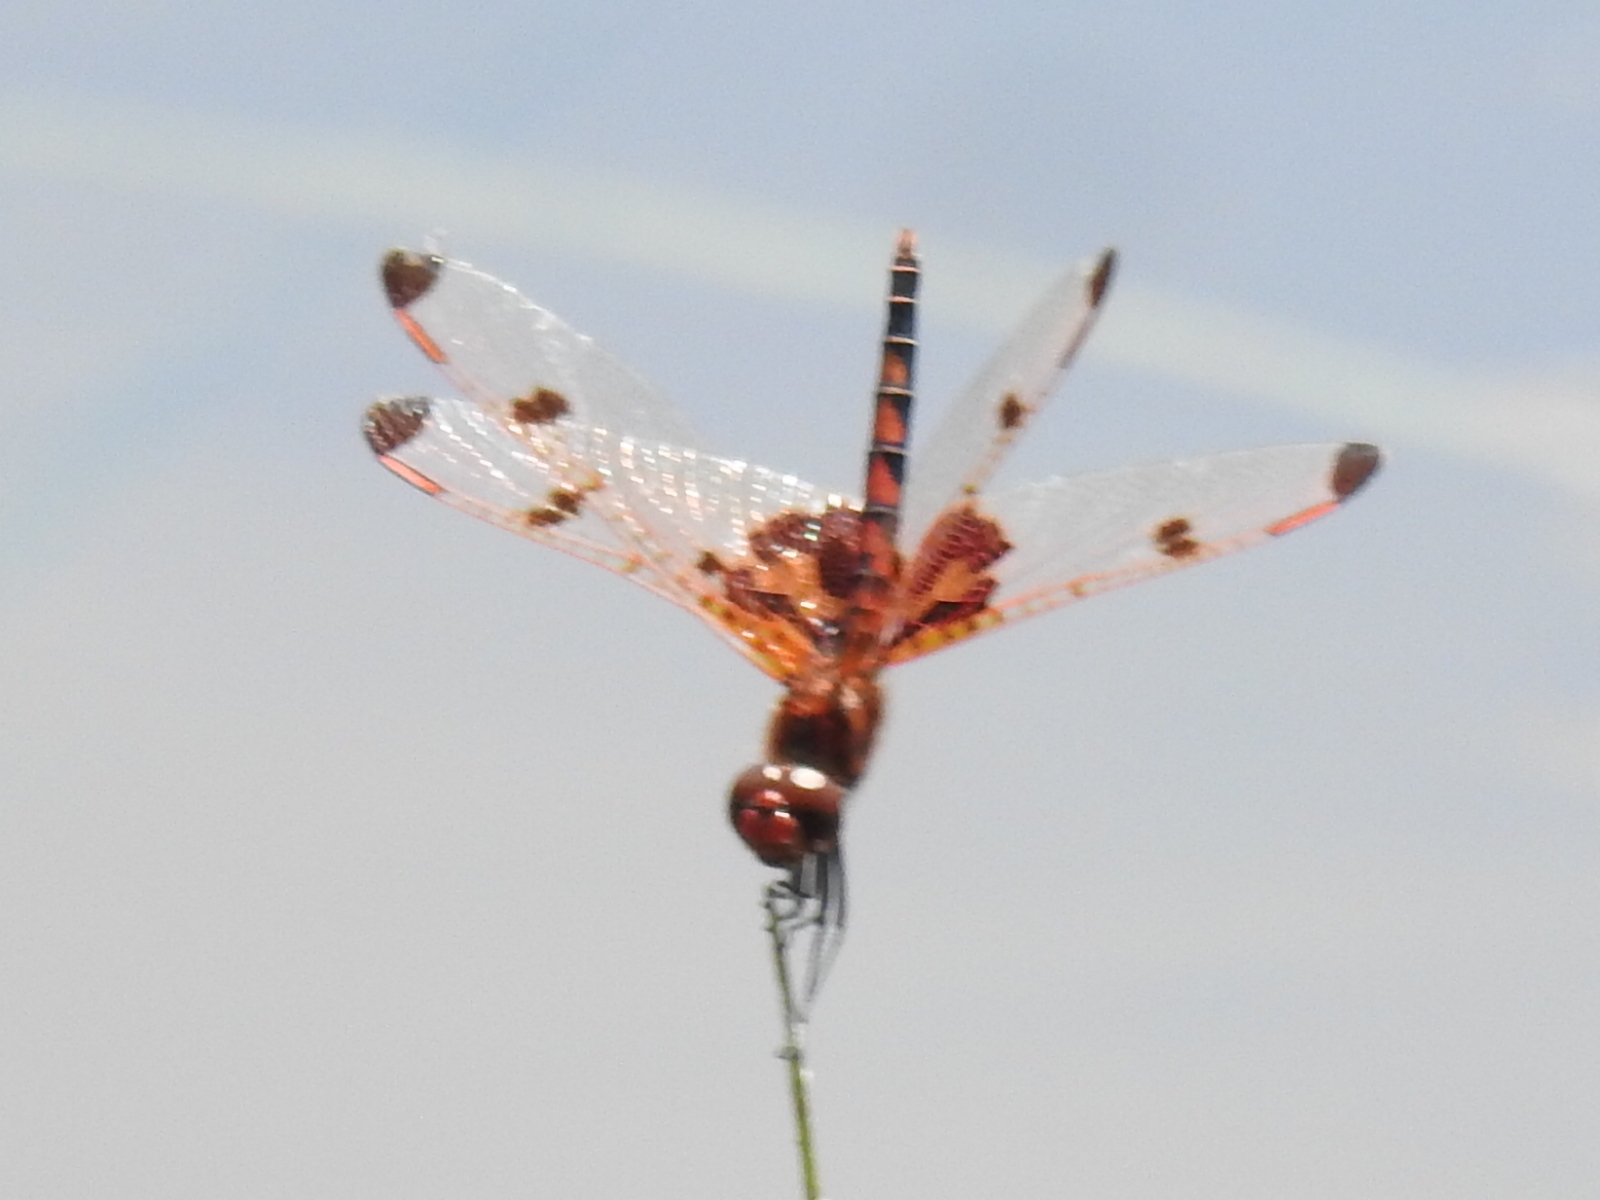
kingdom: Animalia
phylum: Arthropoda
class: Insecta
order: Odonata
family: Libellulidae
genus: Celithemis
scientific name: Celithemis elisa
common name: Calico pennant
